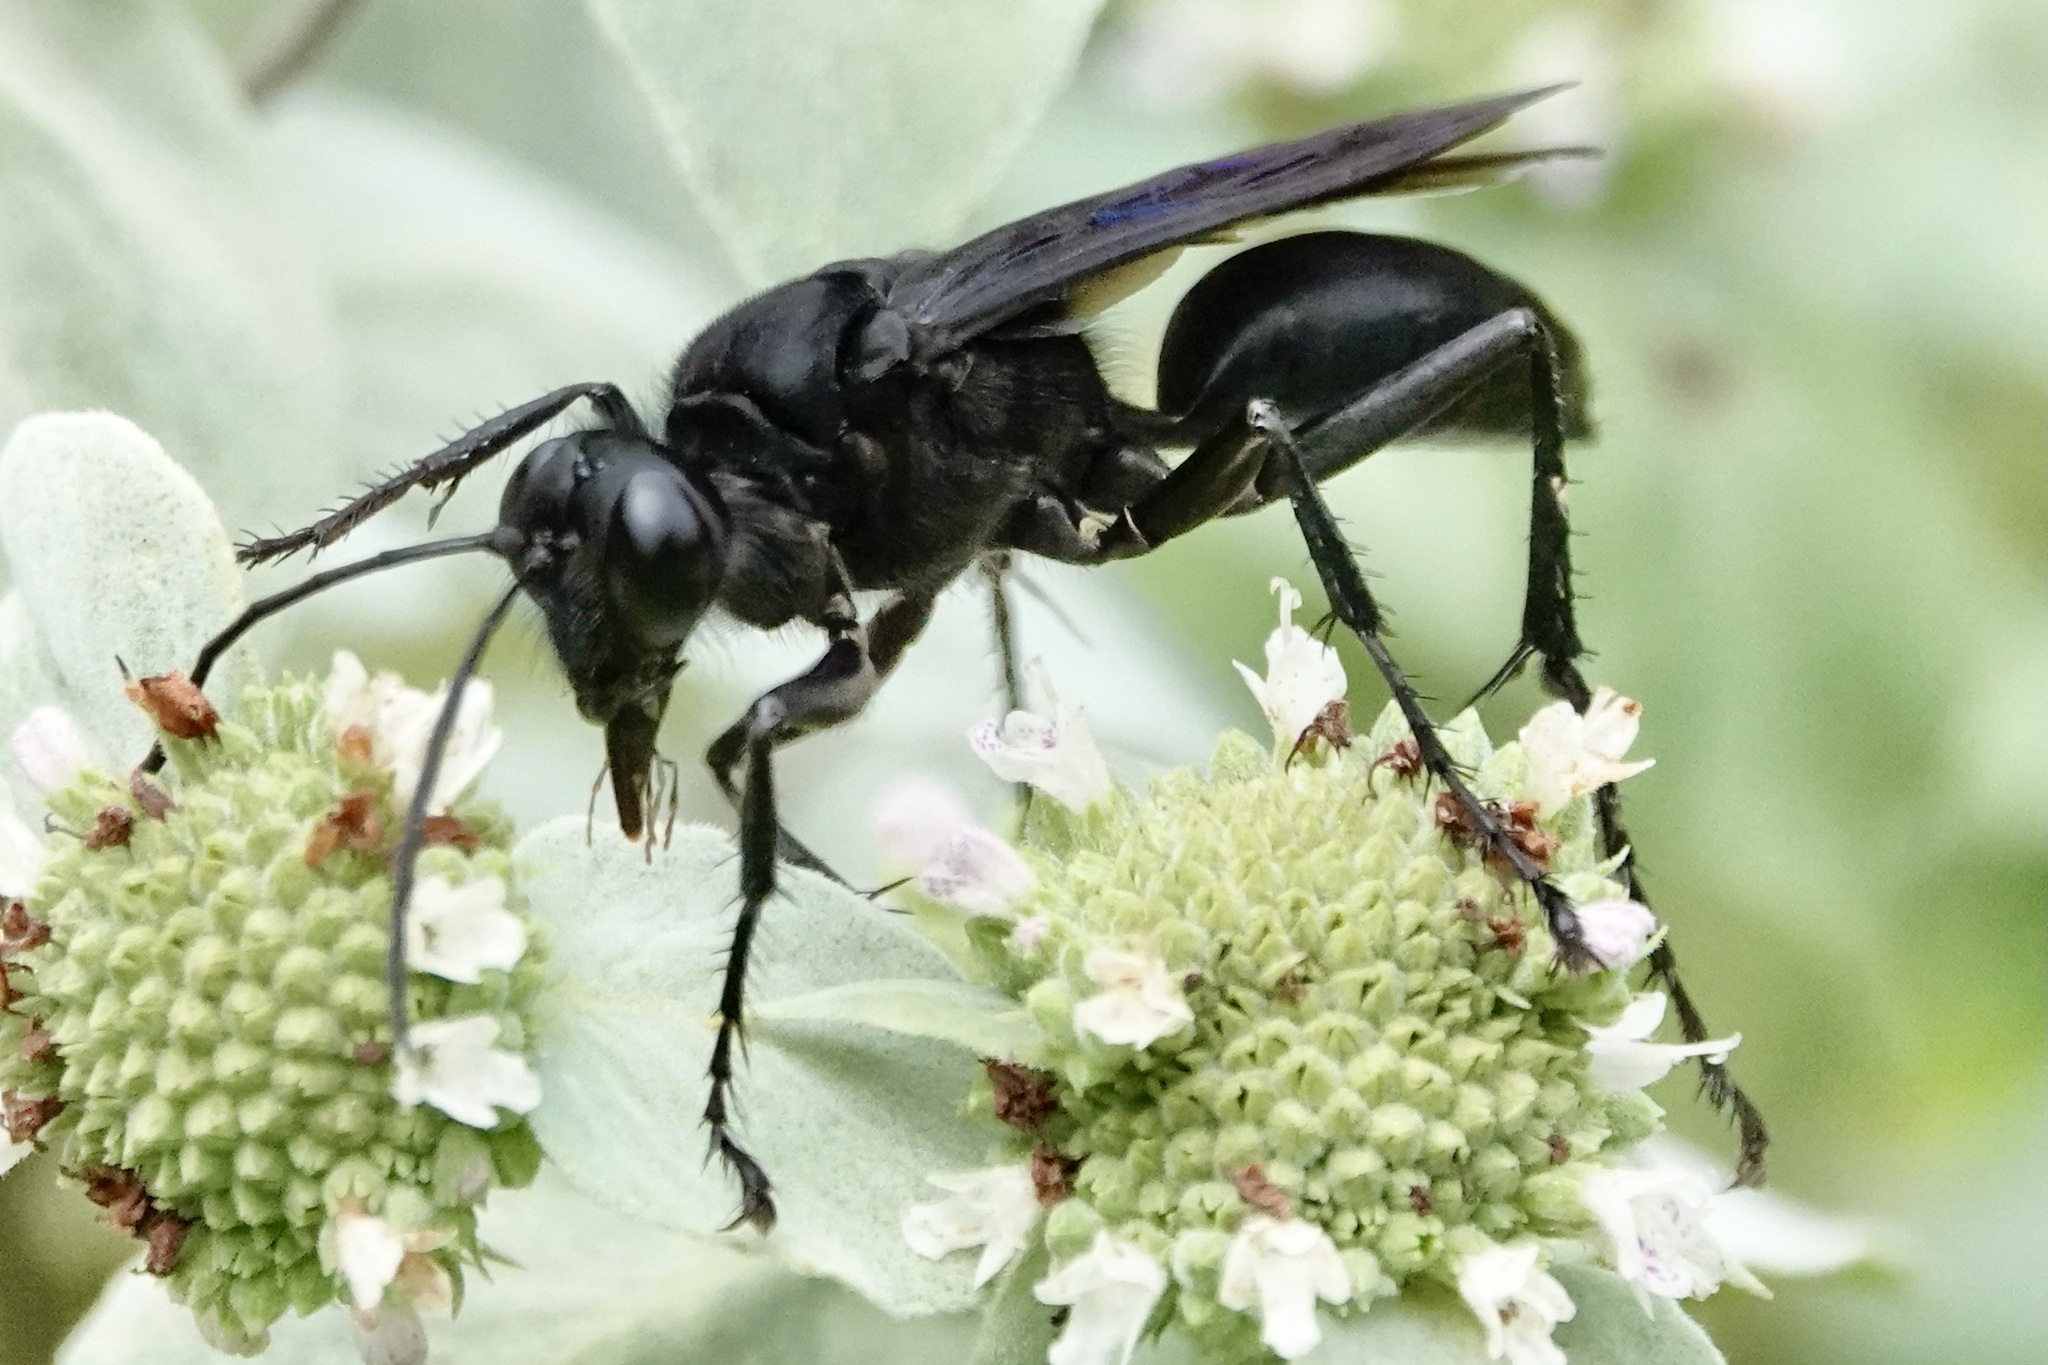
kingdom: Animalia
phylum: Arthropoda
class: Insecta
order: Hymenoptera
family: Sphecidae
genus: Sphex
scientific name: Sphex pensylvanicus
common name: Great black digger wasp
